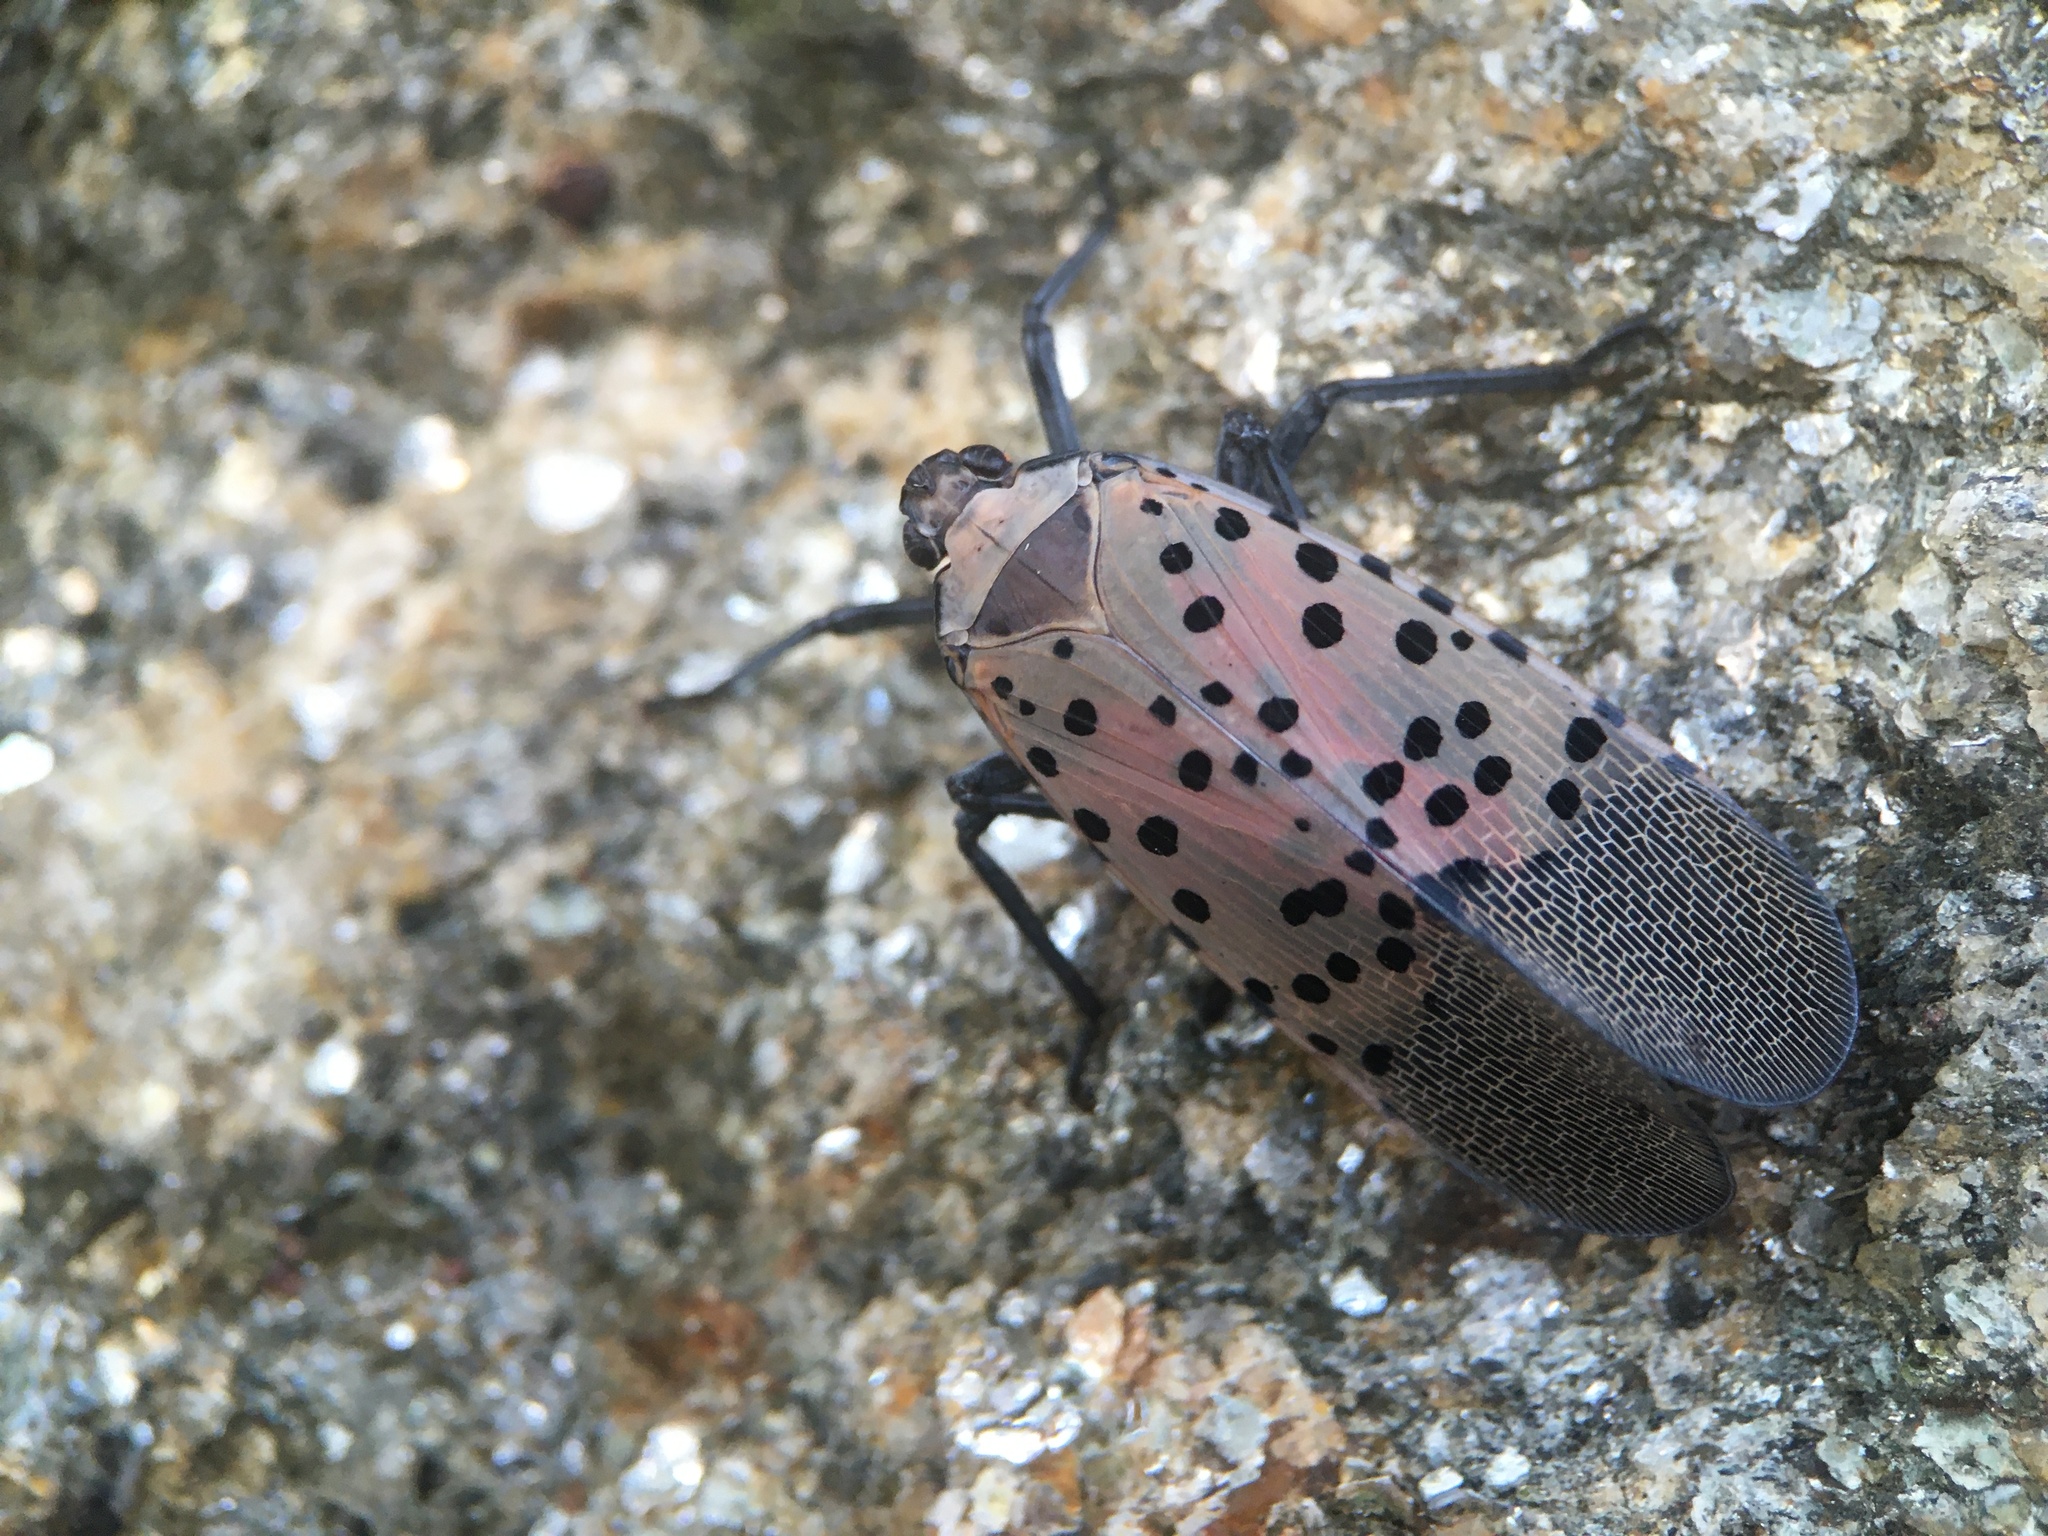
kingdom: Animalia
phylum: Arthropoda
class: Insecta
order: Hemiptera
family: Fulgoridae
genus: Lycorma
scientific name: Lycorma delicatula
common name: Spotted lanternfly
